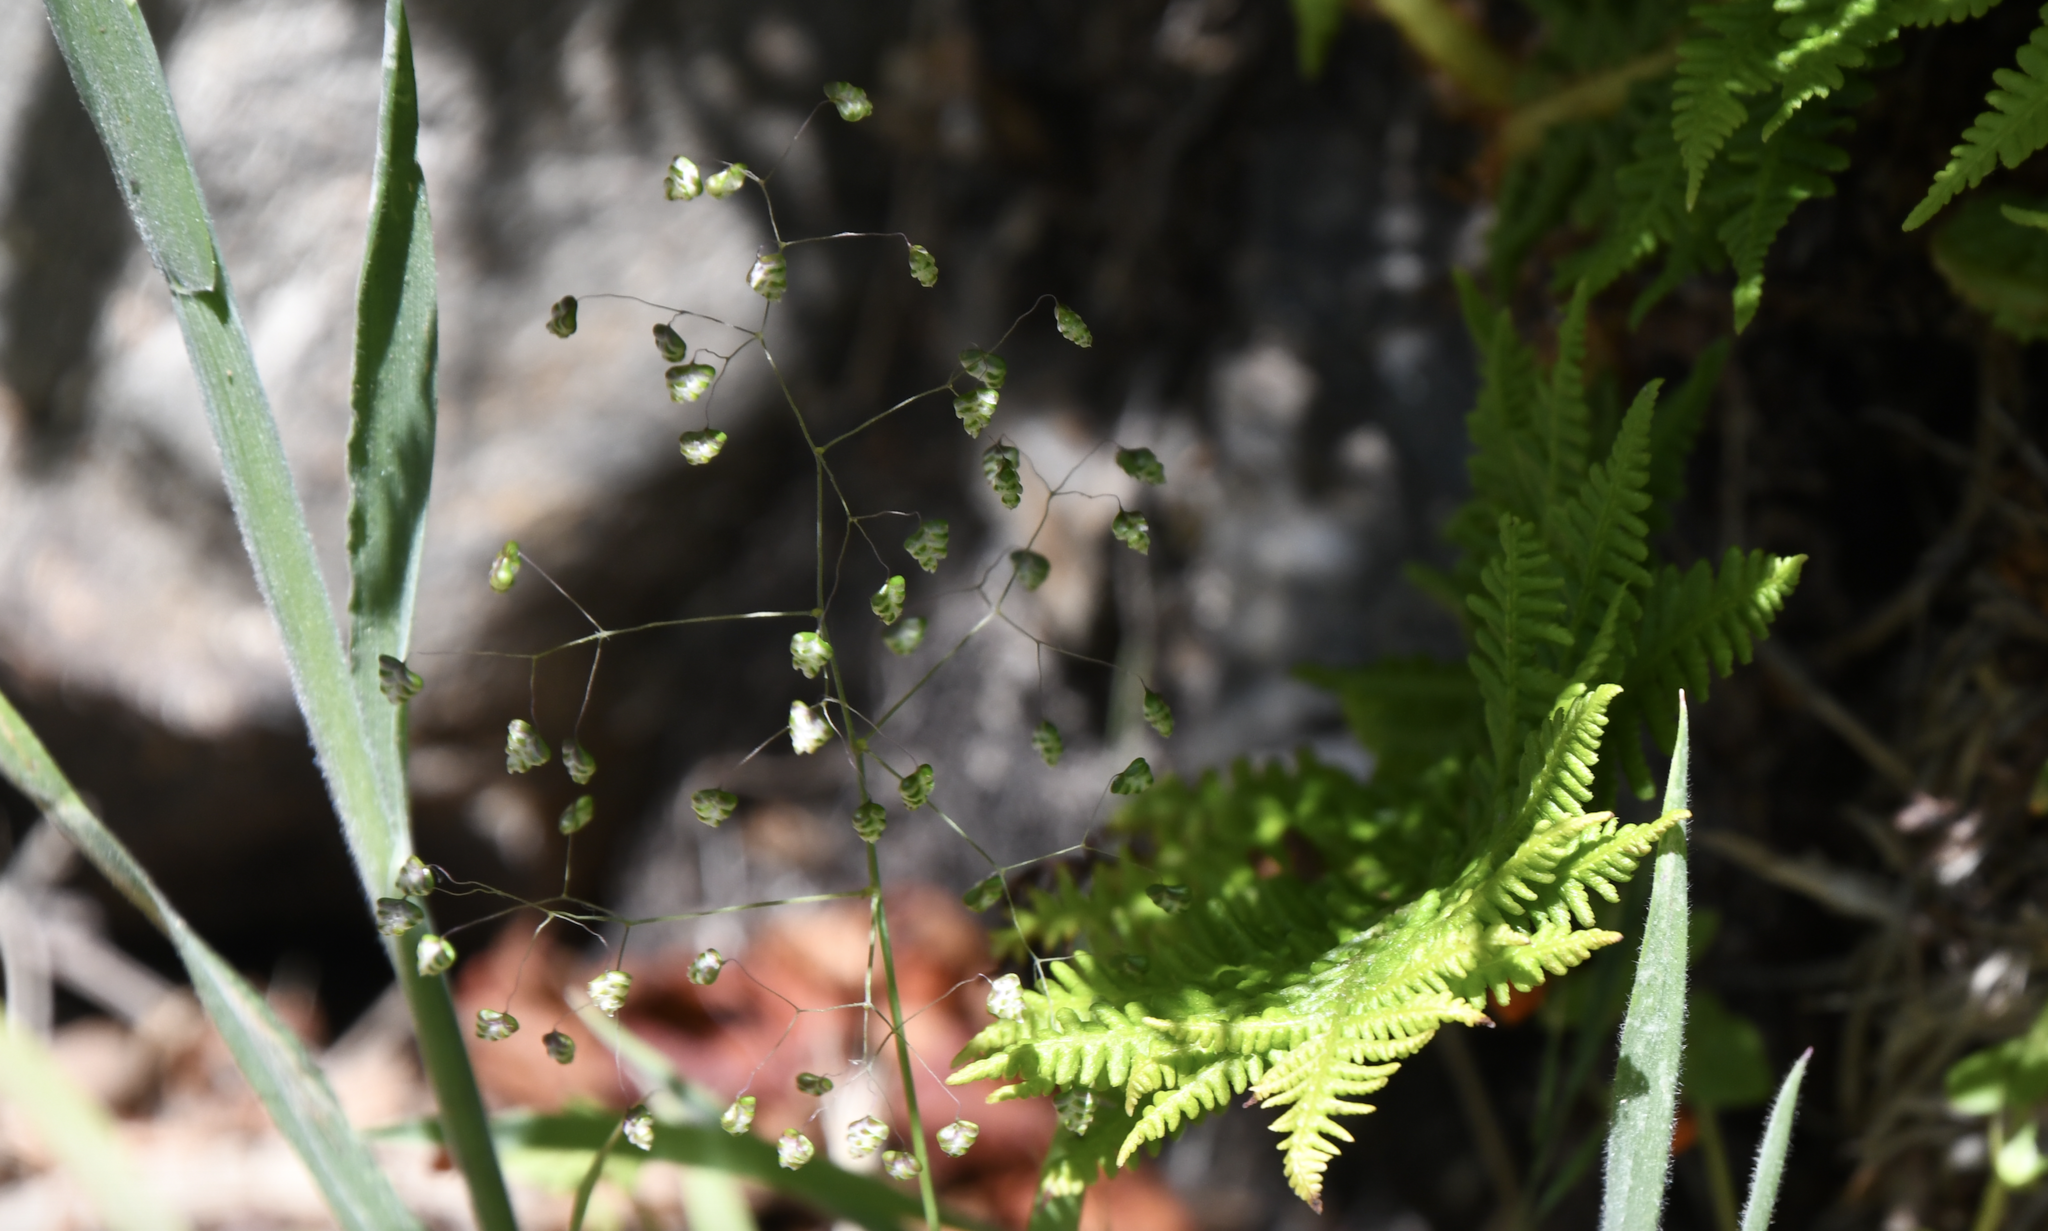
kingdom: Plantae
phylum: Tracheophyta
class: Liliopsida
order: Poales
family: Poaceae
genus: Briza
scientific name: Briza minor
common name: Lesser quaking-grass
